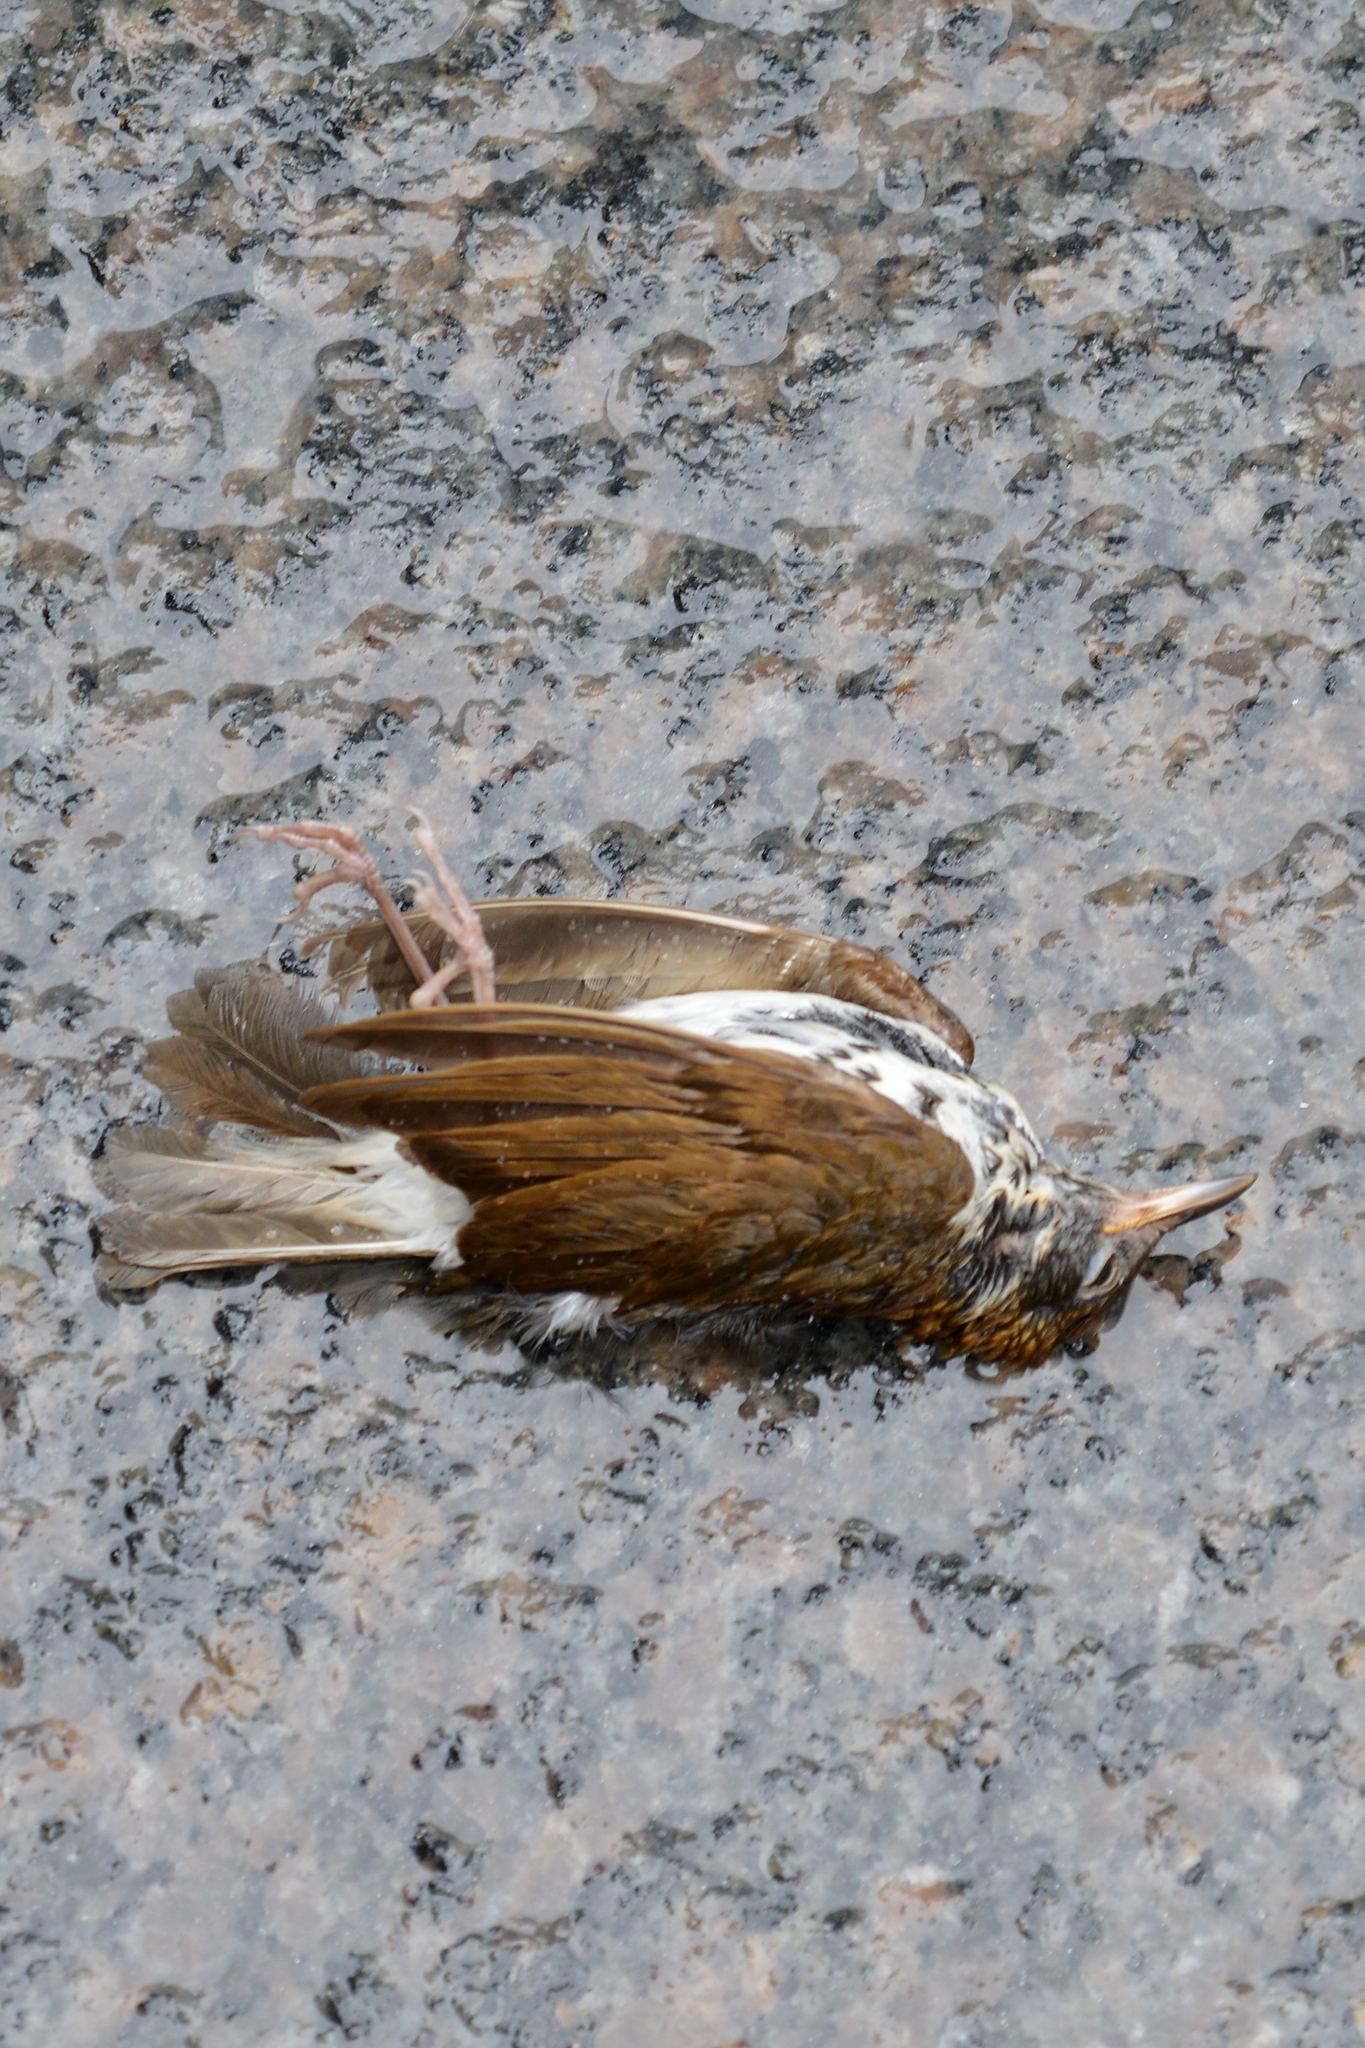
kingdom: Animalia
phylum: Chordata
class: Aves
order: Passeriformes
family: Turdidae
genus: Hylocichla
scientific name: Hylocichla mustelina
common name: Wood thrush
